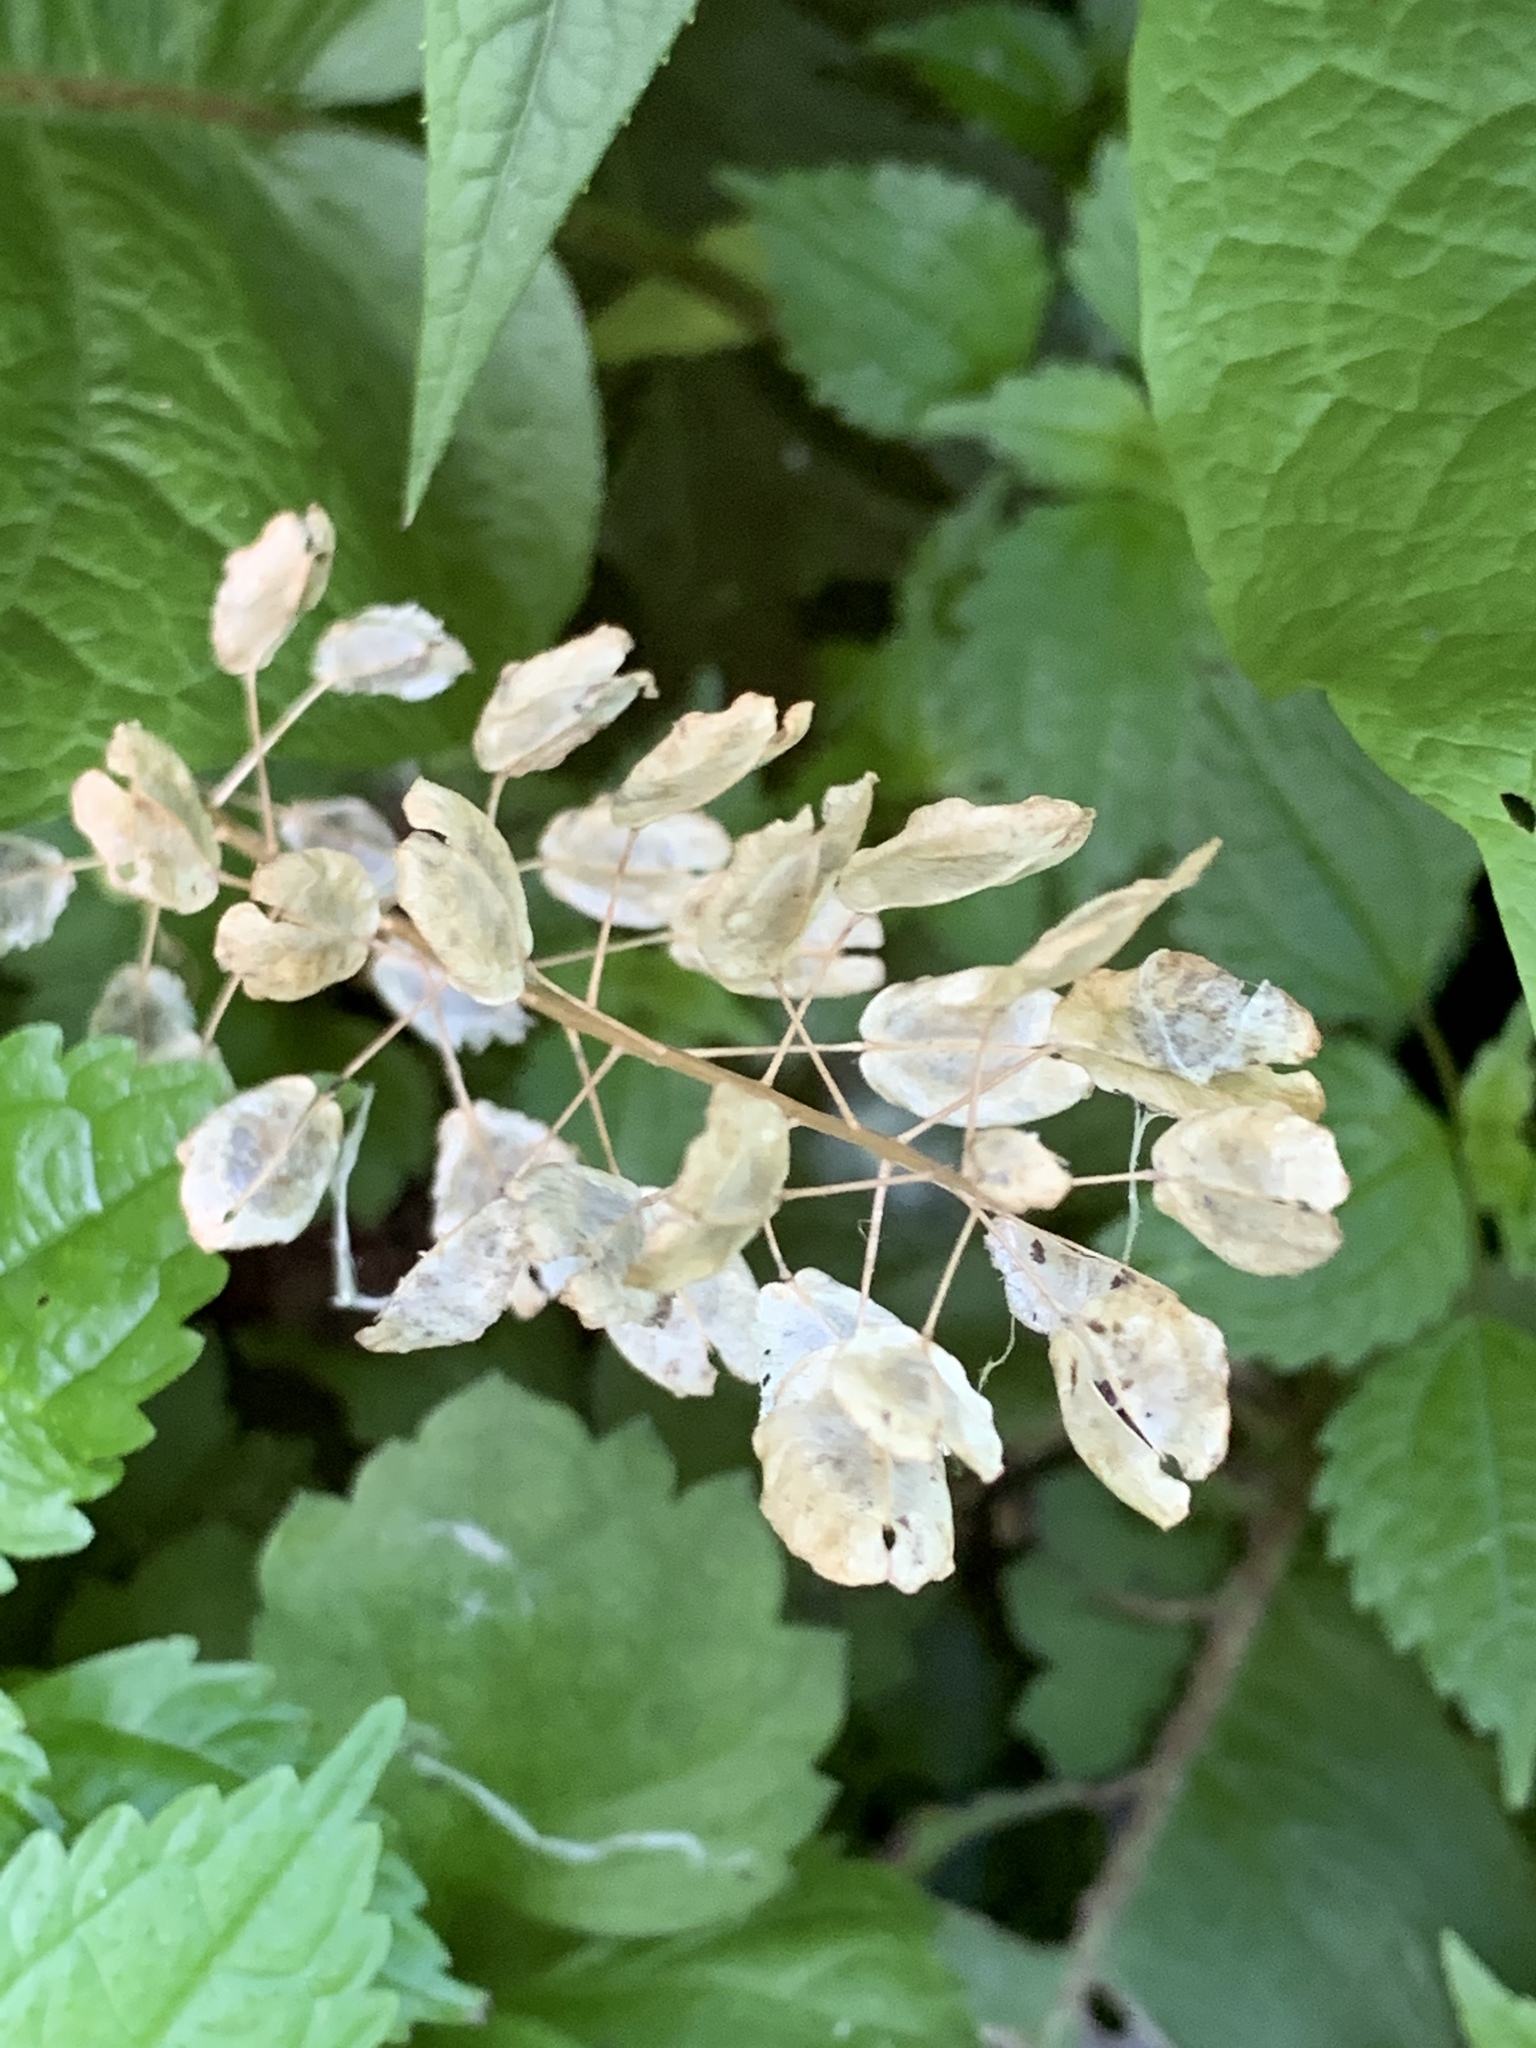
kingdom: Plantae
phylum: Tracheophyta
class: Magnoliopsida
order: Brassicales
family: Brassicaceae
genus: Thlaspi
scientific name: Thlaspi arvense
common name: Field pennycress
